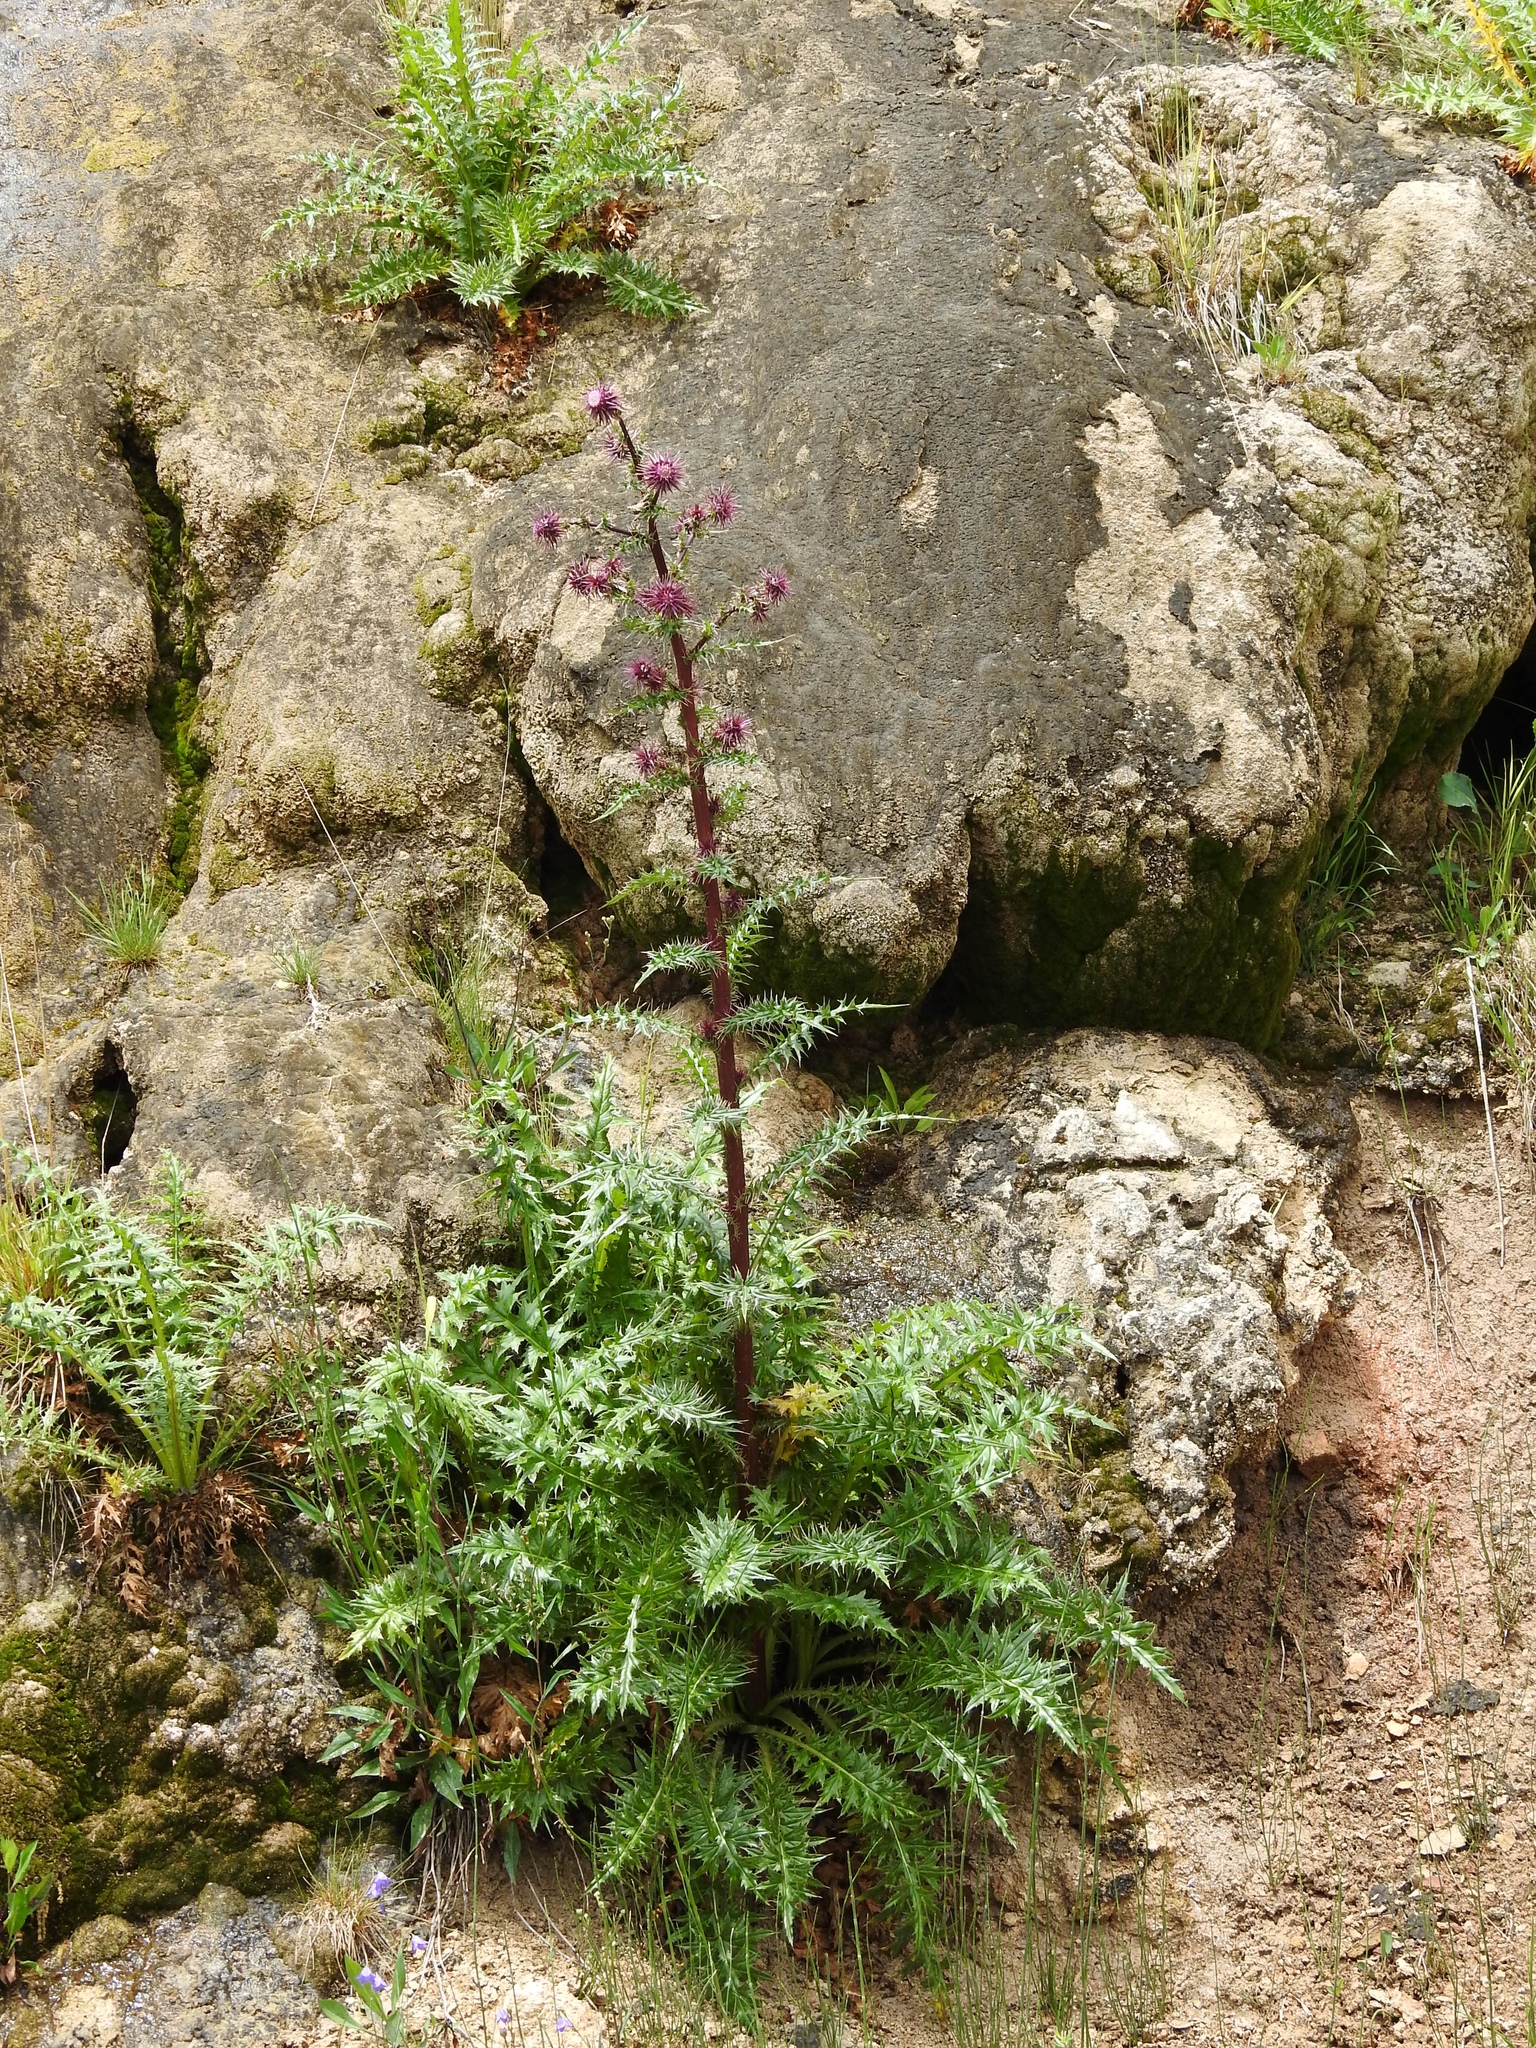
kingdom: Plantae
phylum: Tracheophyta
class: Magnoliopsida
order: Asterales
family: Asteraceae
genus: Cirsium
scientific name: Cirsium vinaceum
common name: Sacramento mountain thistle
